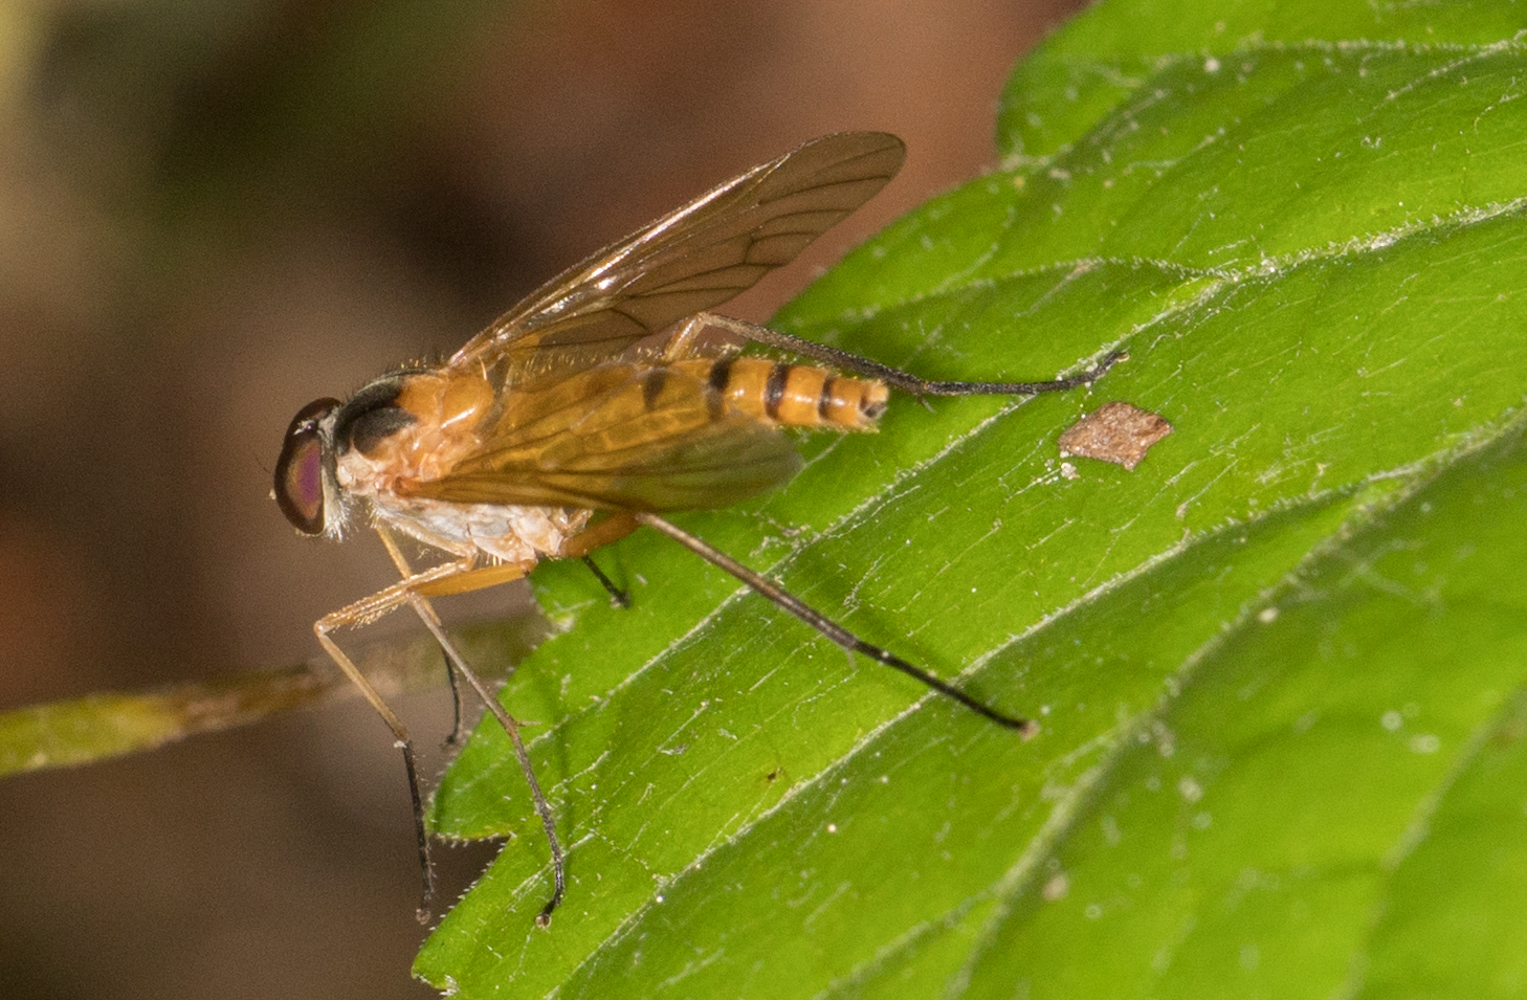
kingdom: Animalia
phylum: Arthropoda
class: Insecta
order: Diptera
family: Rhagionidae
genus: Rhagio
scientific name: Rhagio
